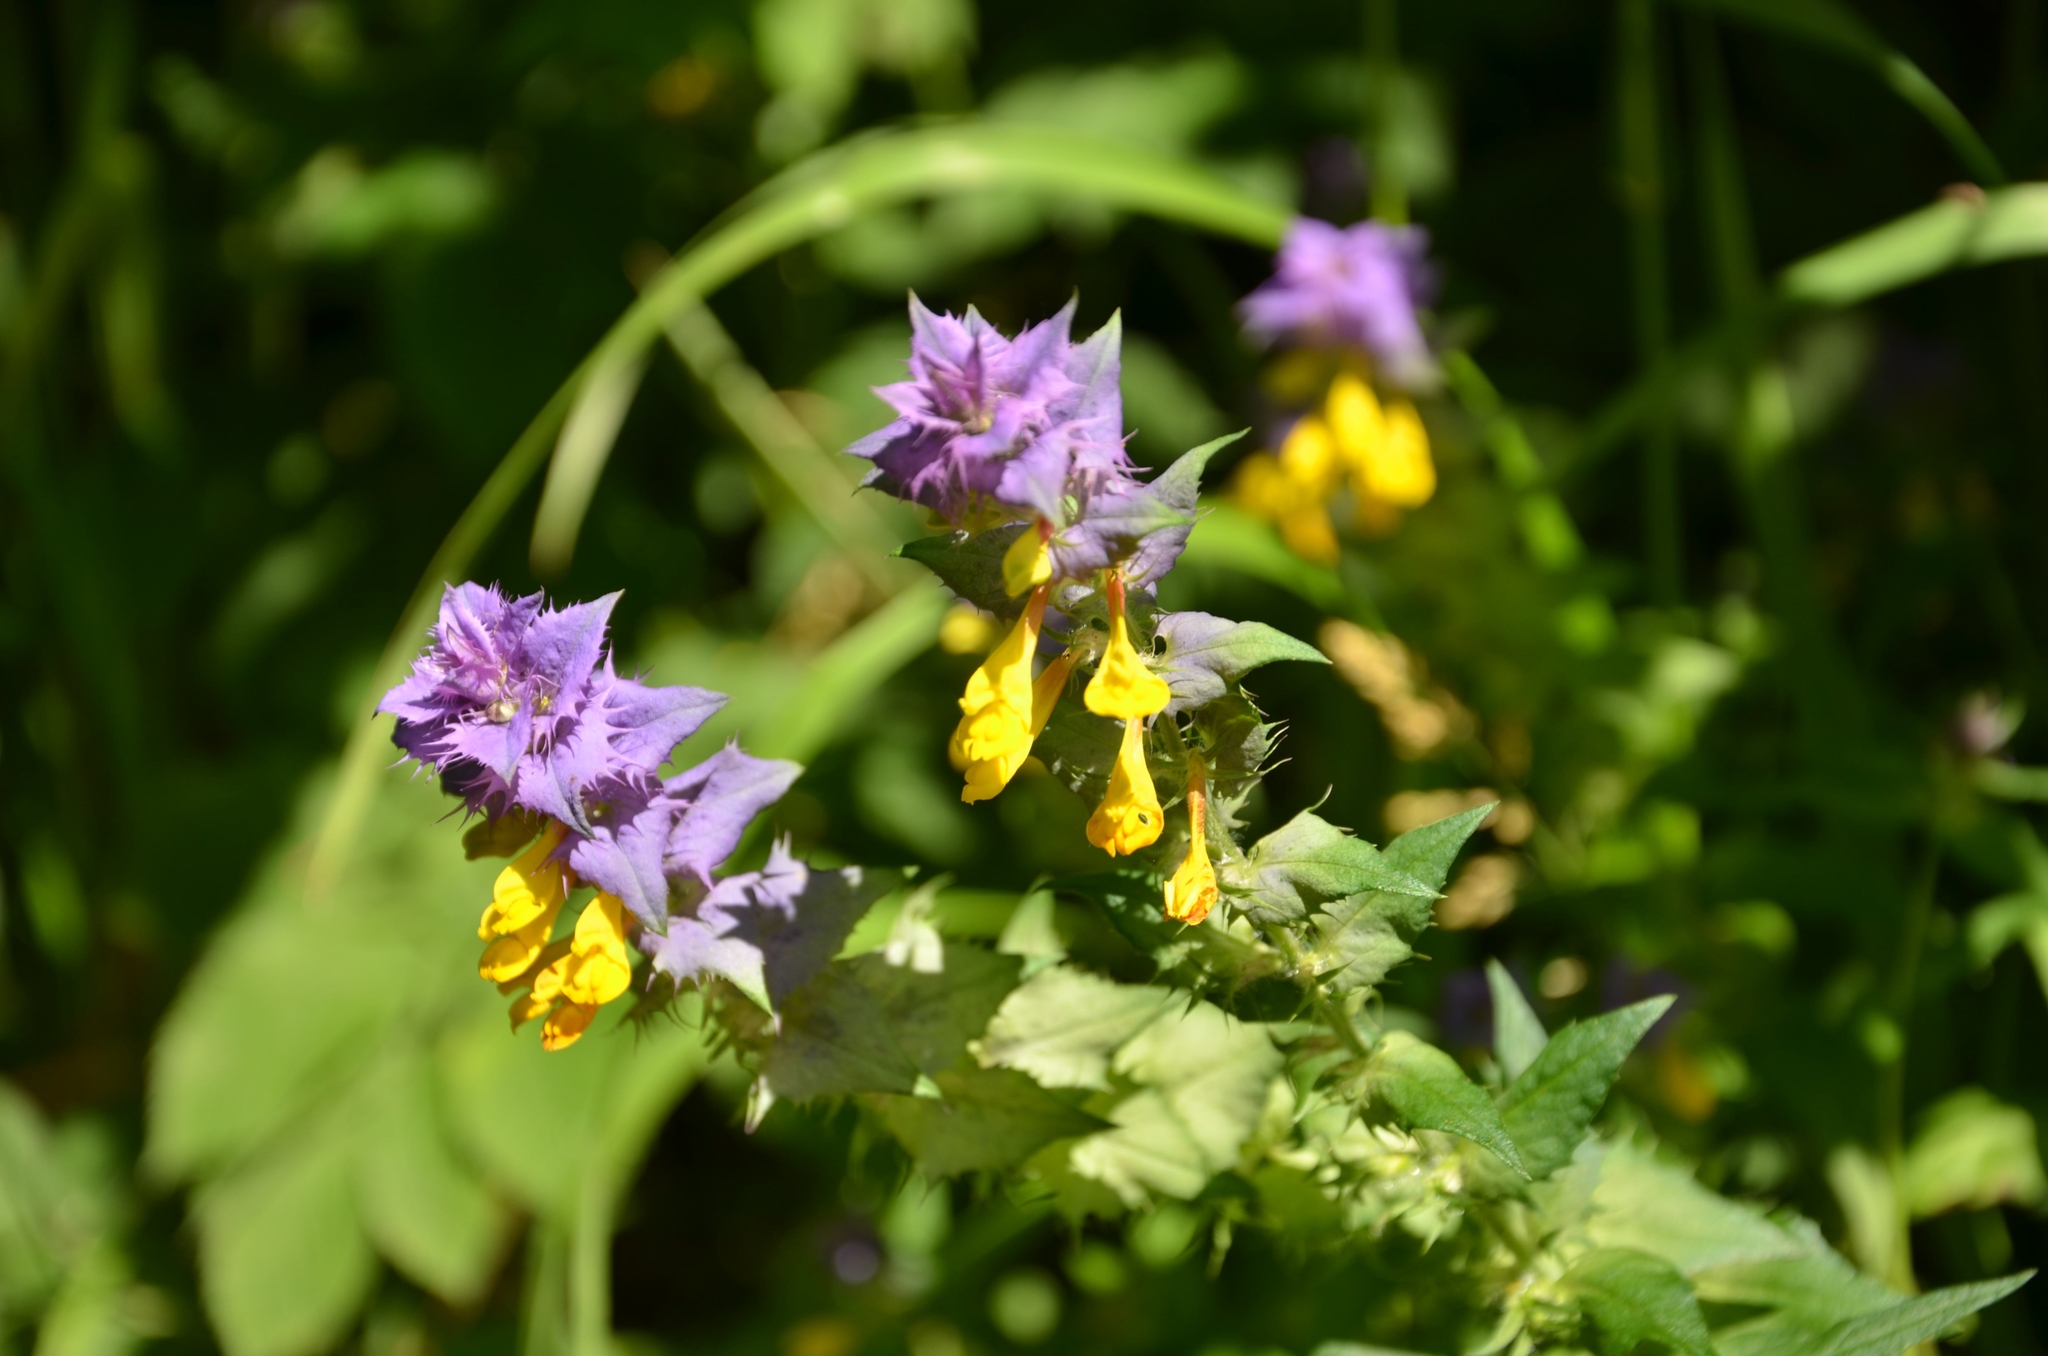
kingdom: Plantae
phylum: Tracheophyta
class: Magnoliopsida
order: Lamiales
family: Orobanchaceae
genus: Melampyrum
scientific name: Melampyrum nemorosum
